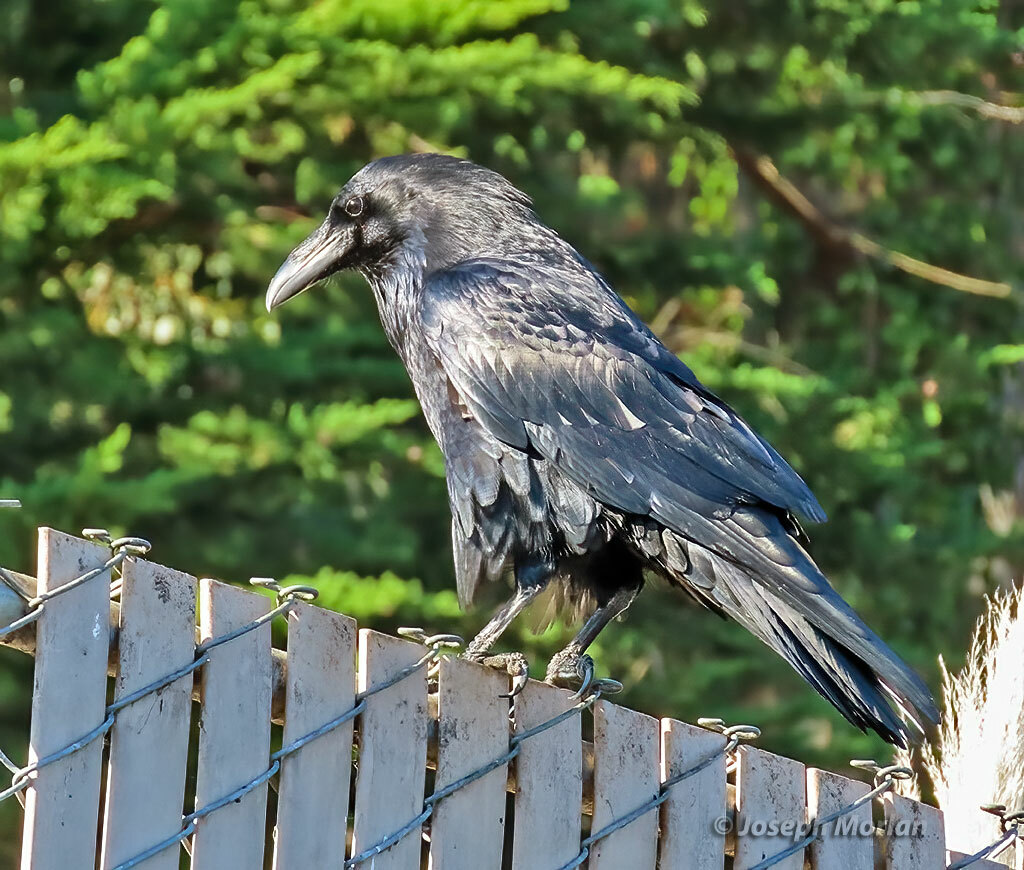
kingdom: Animalia
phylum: Chordata
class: Aves
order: Passeriformes
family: Corvidae
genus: Corvus
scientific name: Corvus corax
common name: Common raven
